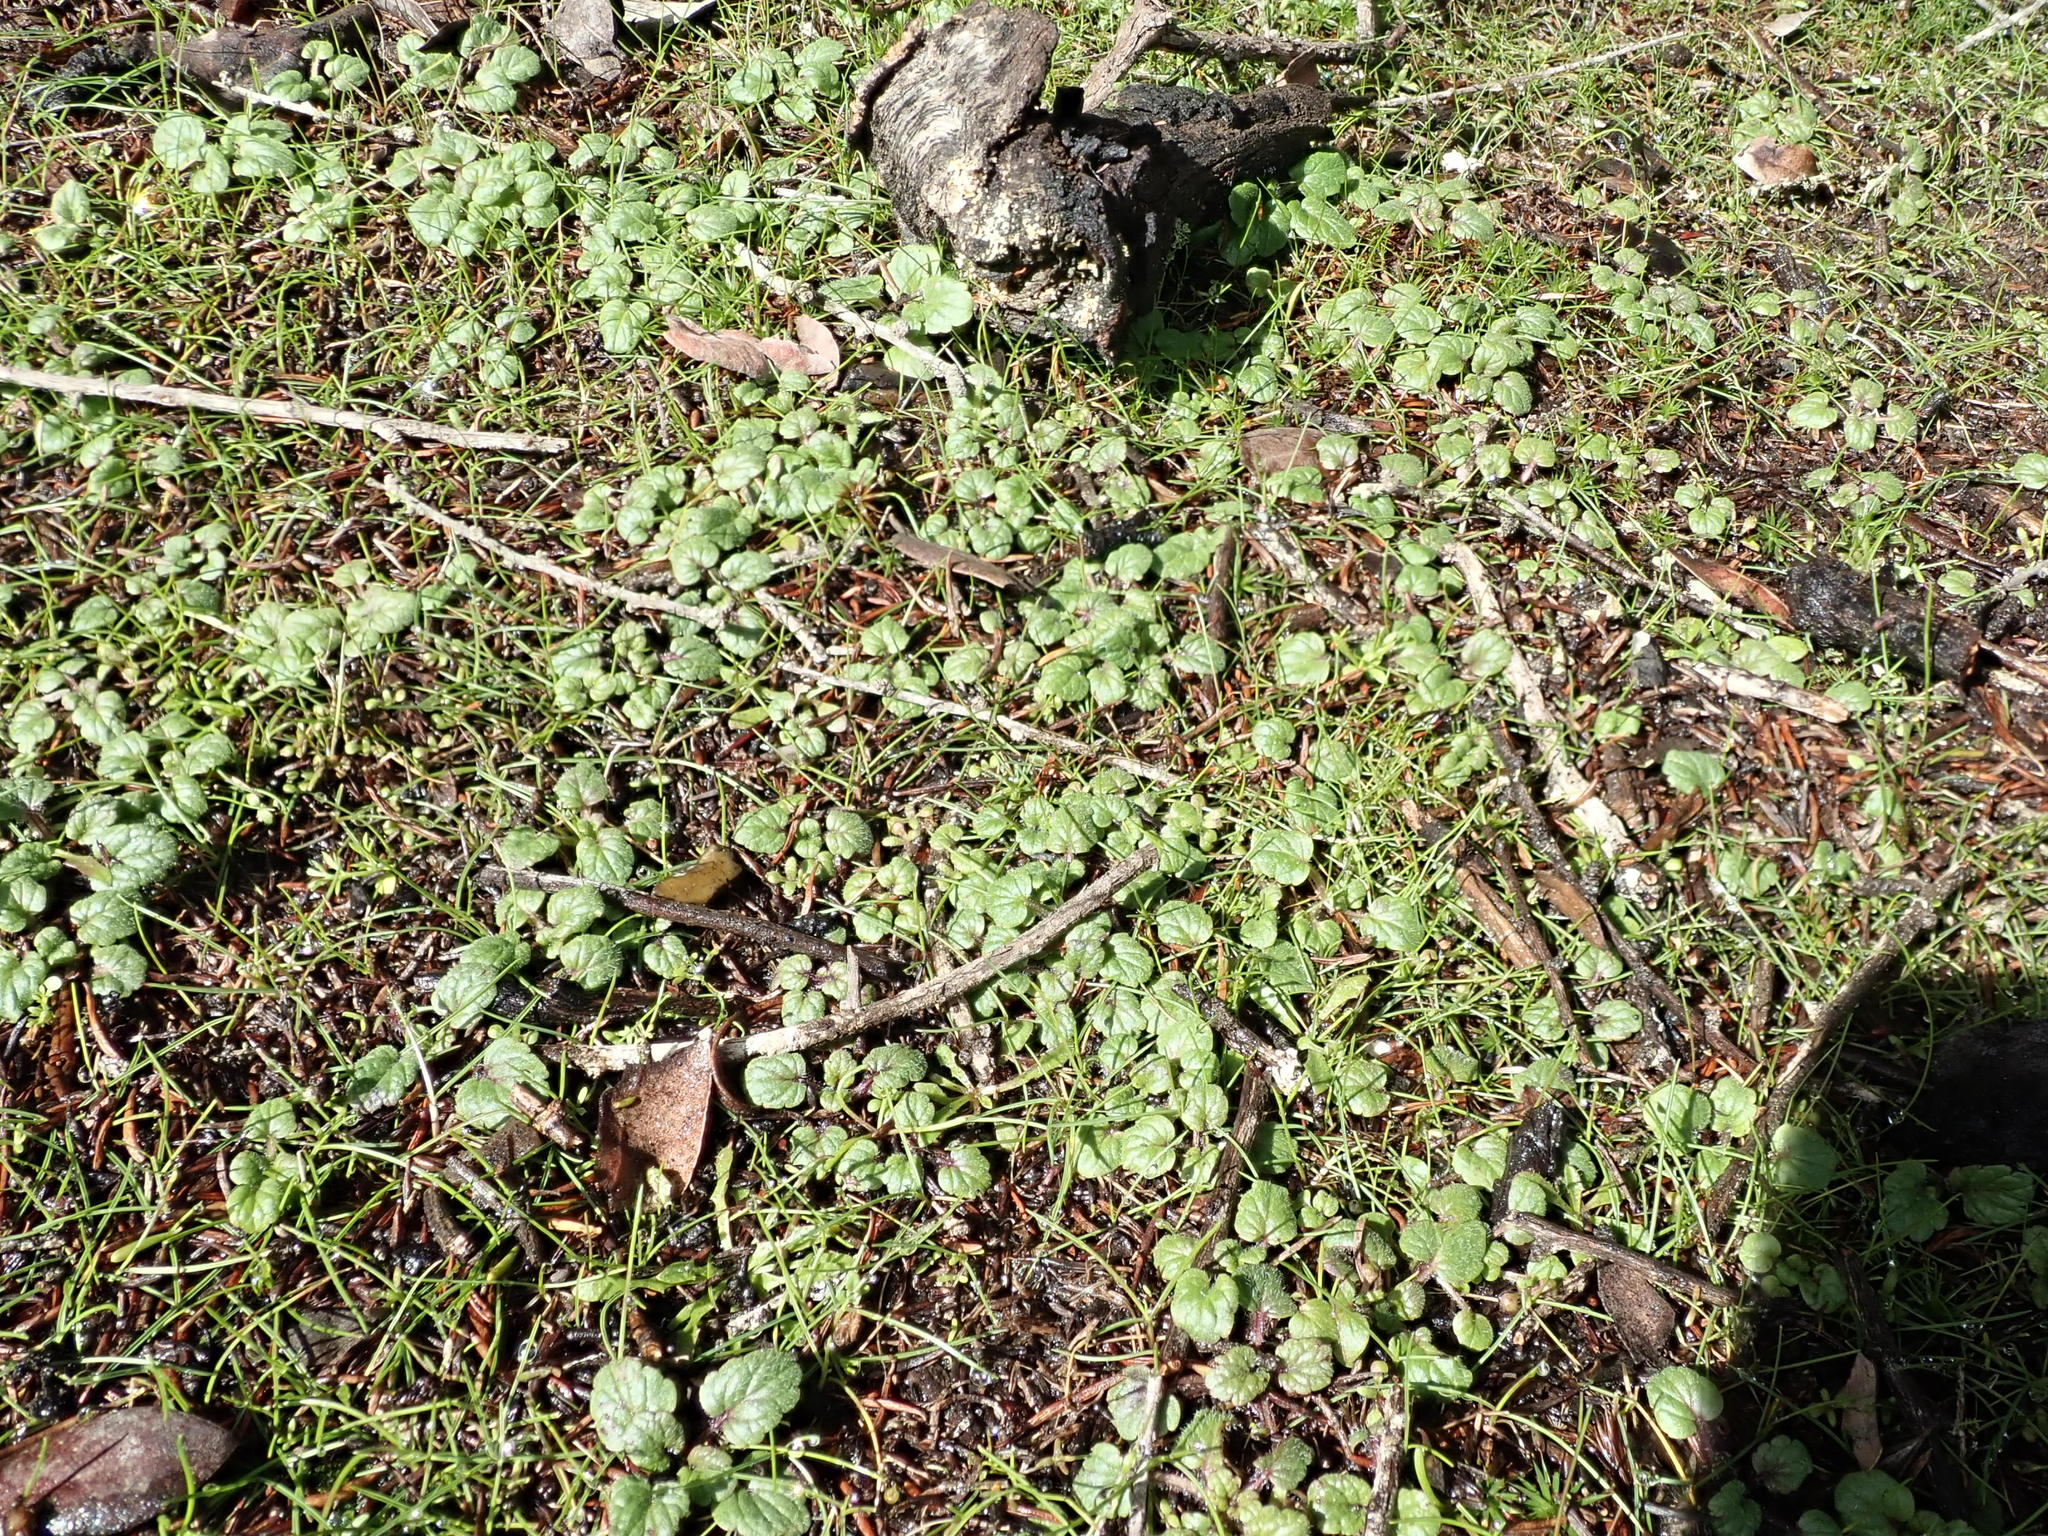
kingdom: Plantae
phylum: Tracheophyta
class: Magnoliopsida
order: Lamiales
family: Lamiaceae
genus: Scutellaria
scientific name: Scutellaria tuberosa
